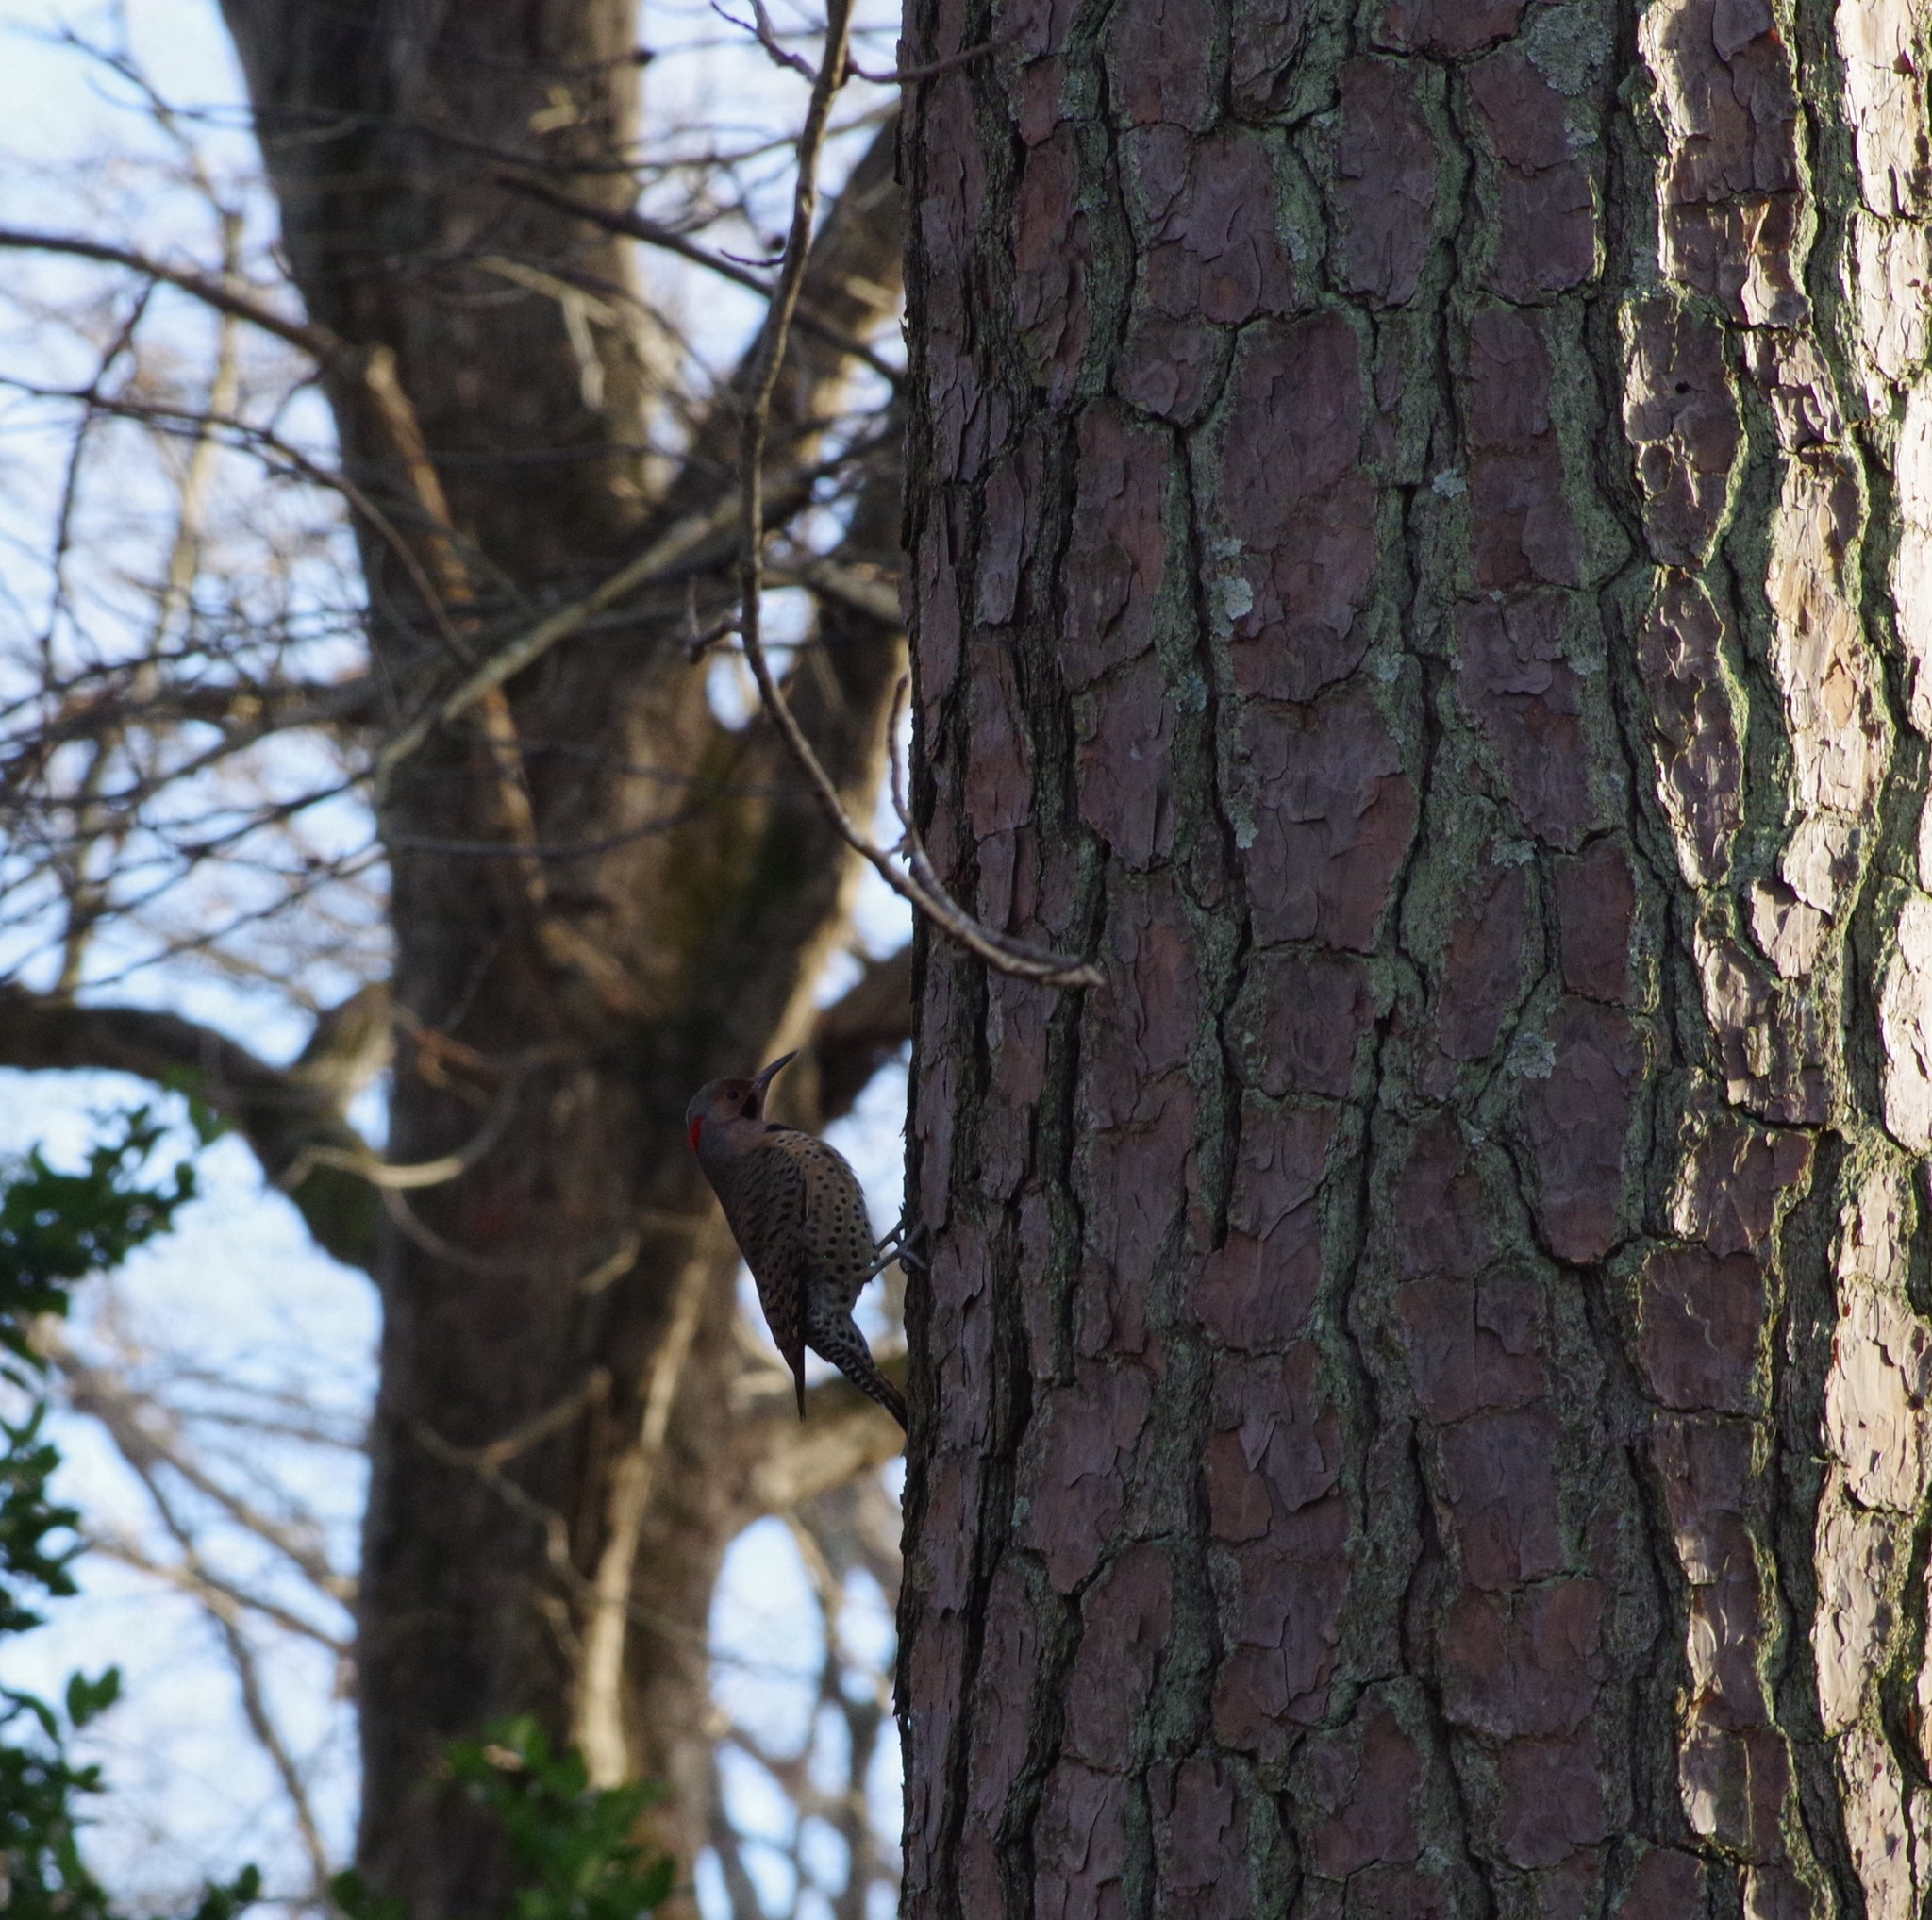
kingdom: Animalia
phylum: Chordata
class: Aves
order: Piciformes
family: Picidae
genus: Colaptes
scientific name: Colaptes auratus
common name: Northern flicker
